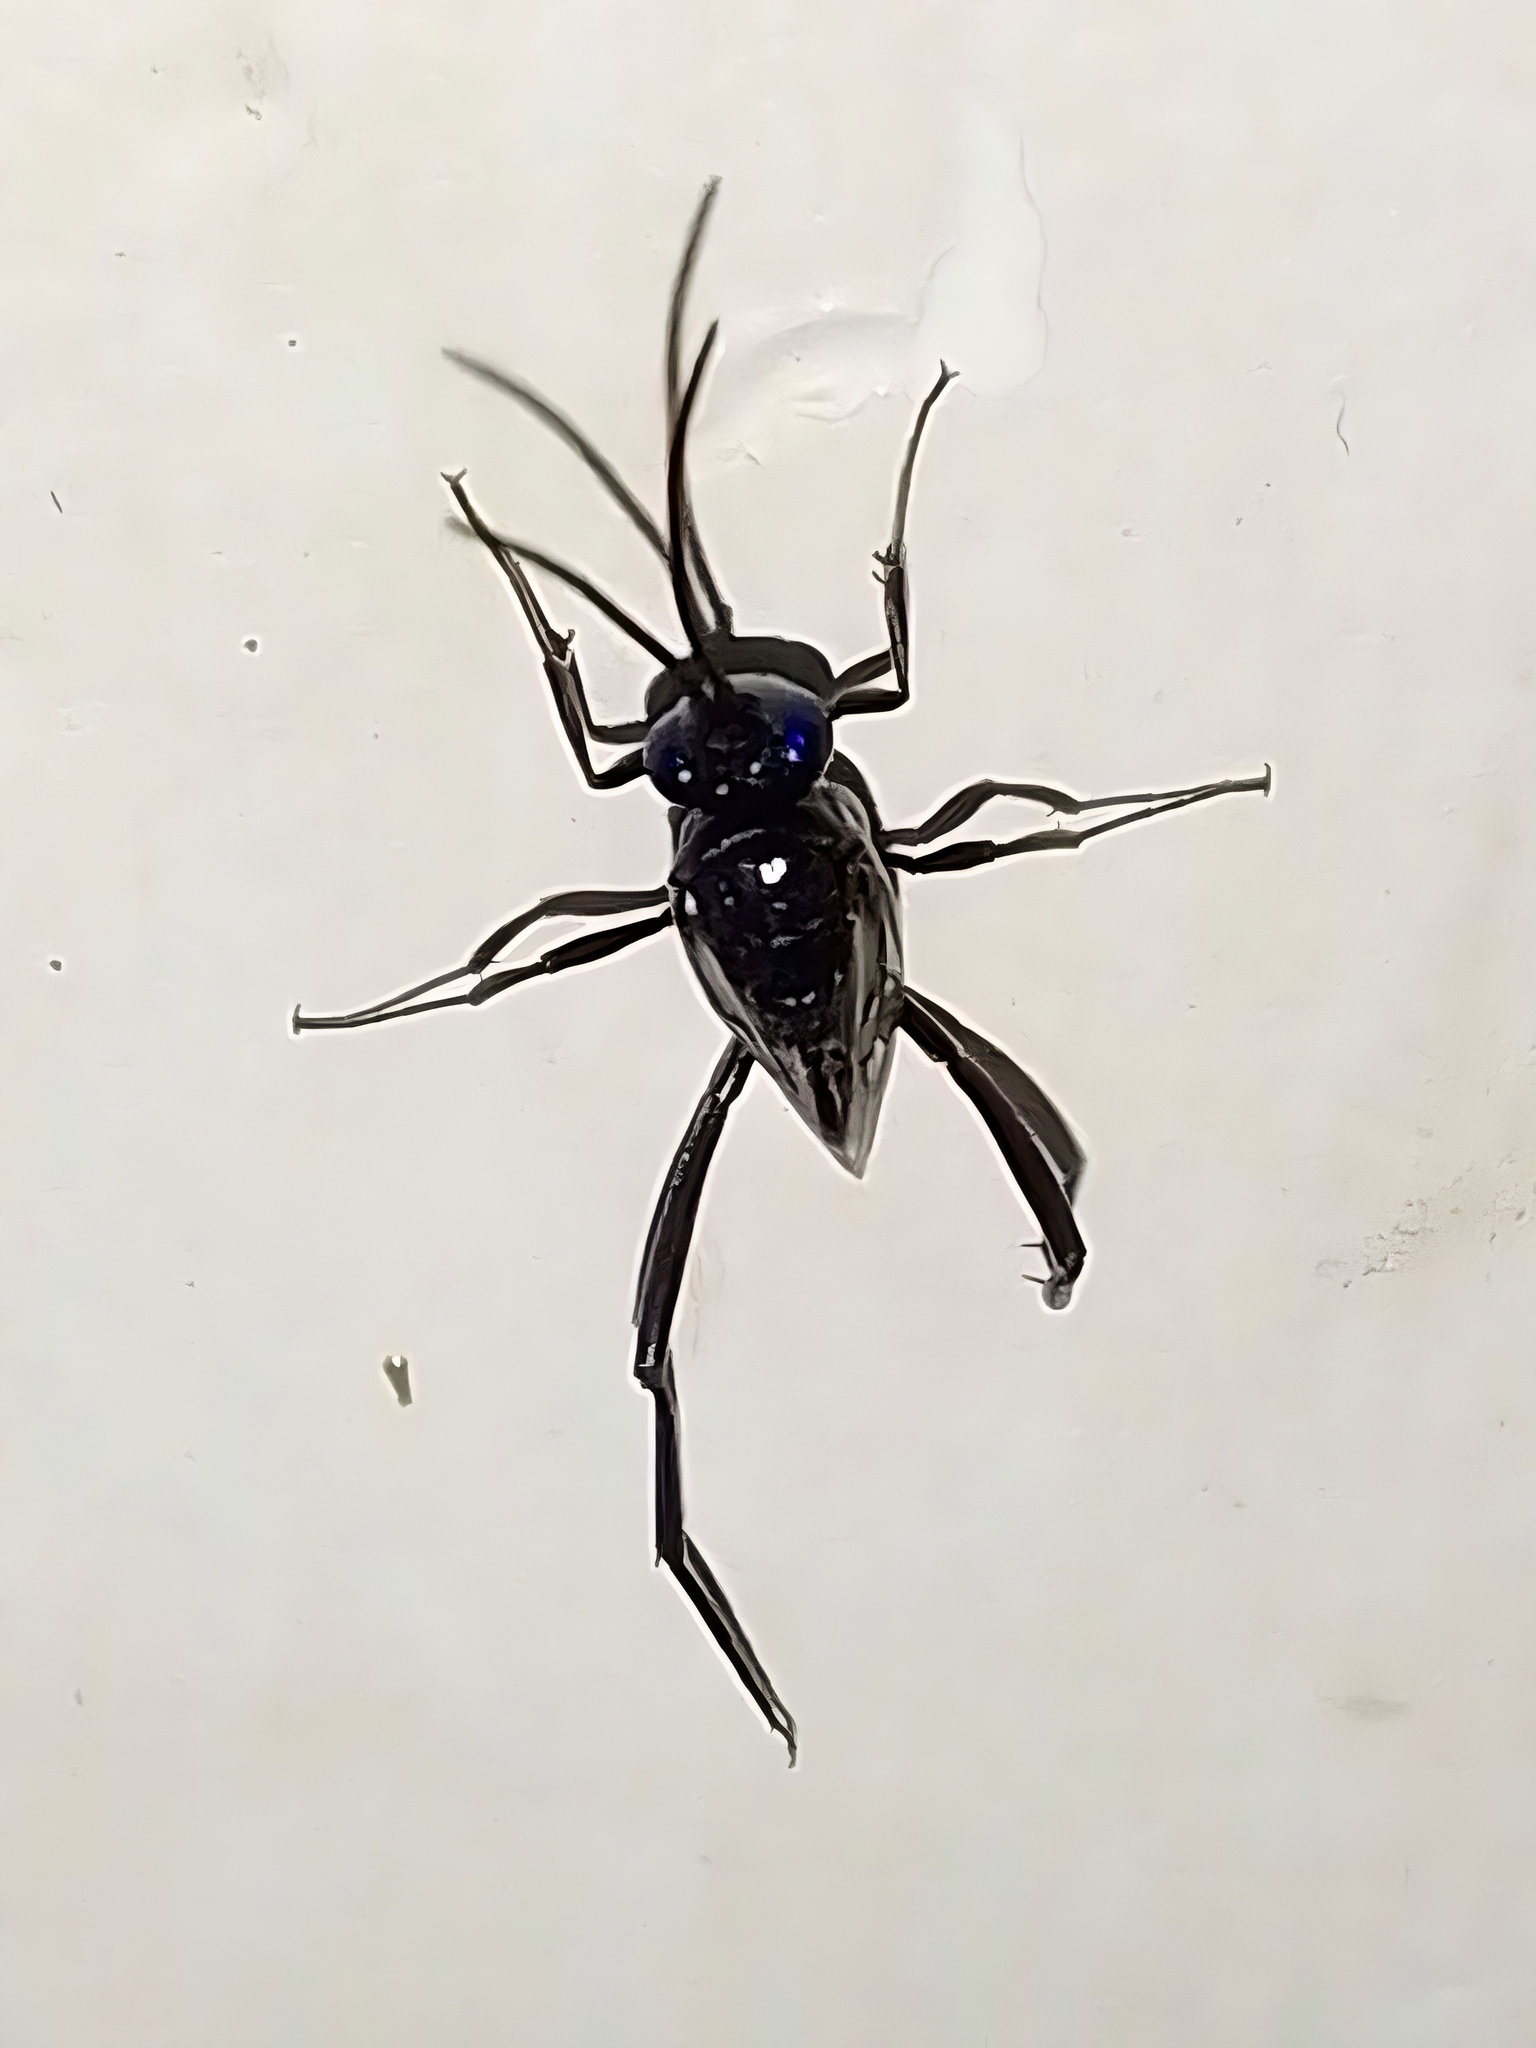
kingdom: Animalia
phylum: Arthropoda
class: Insecta
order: Hymenoptera
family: Evaniidae
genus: Evania
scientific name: Evania appendigaster
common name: Ensign wasp
